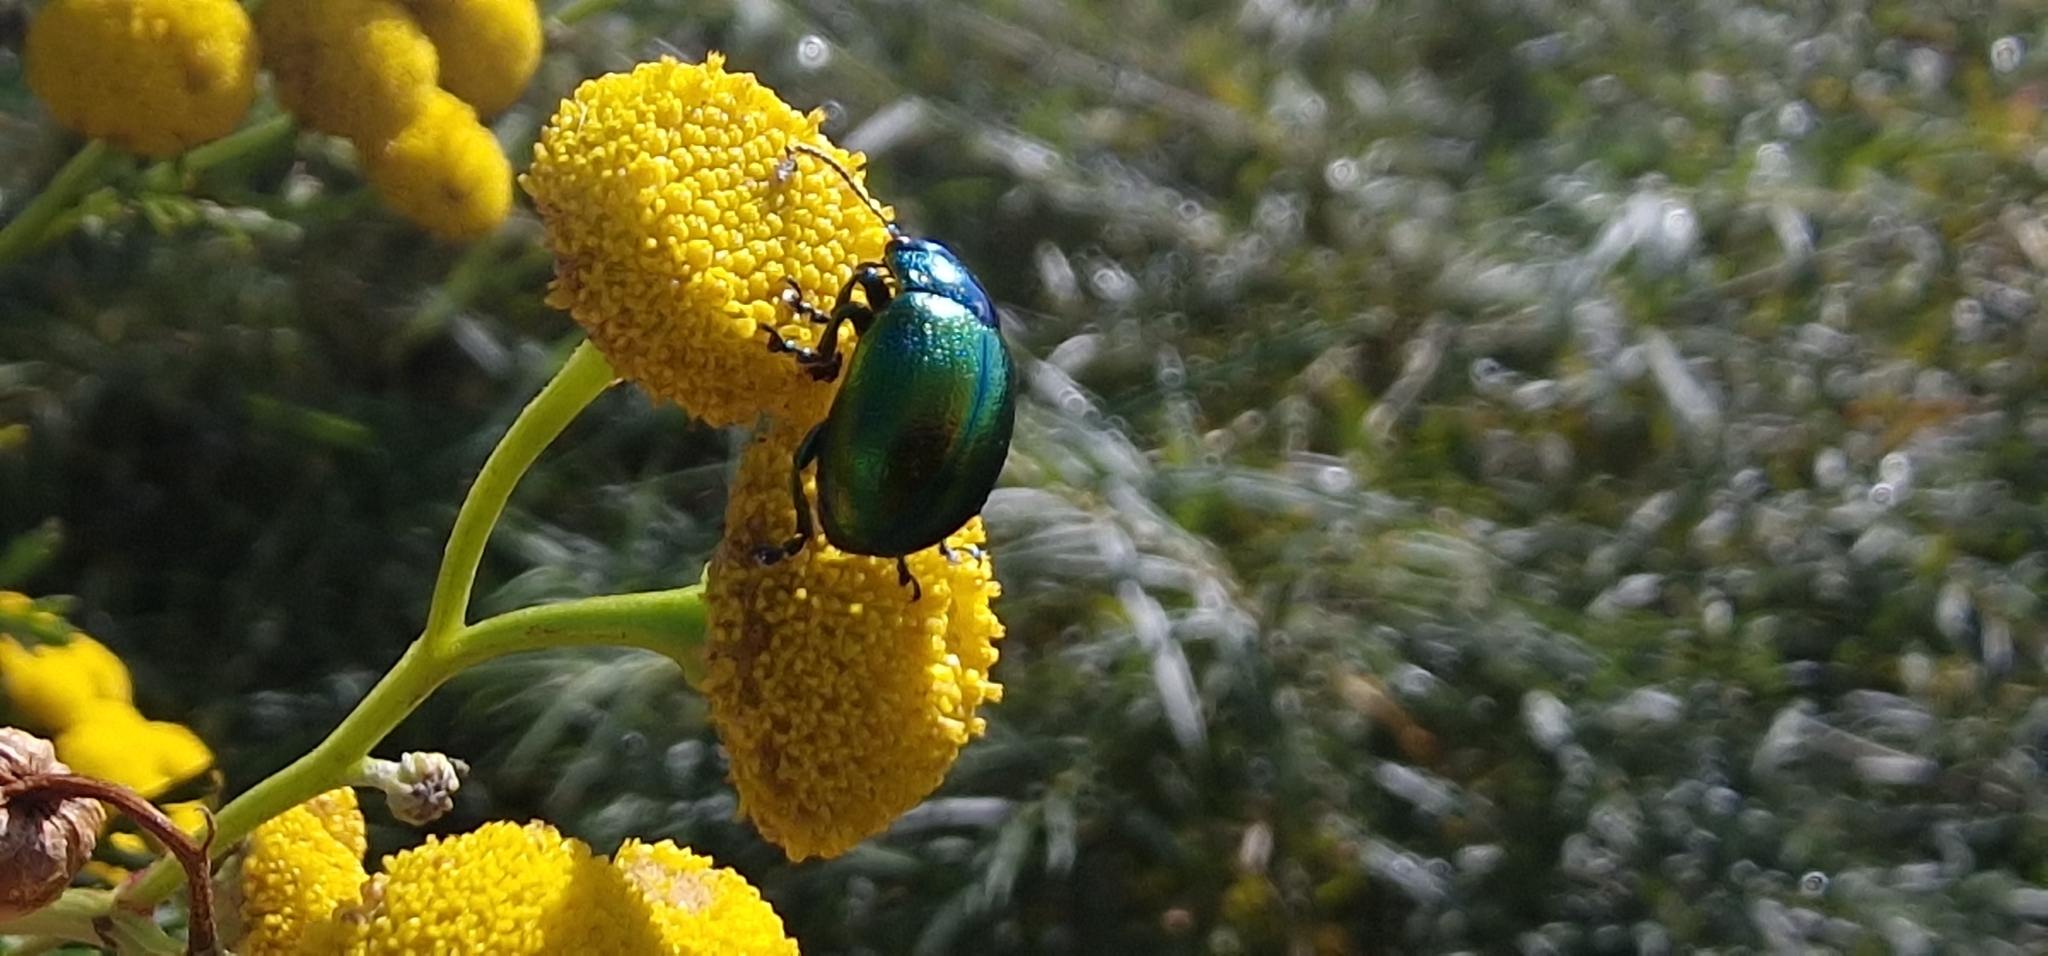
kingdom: Animalia
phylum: Arthropoda
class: Insecta
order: Coleoptera
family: Chrysomelidae
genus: Chrysolina
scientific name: Chrysolina graminis
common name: Tansey beetle
